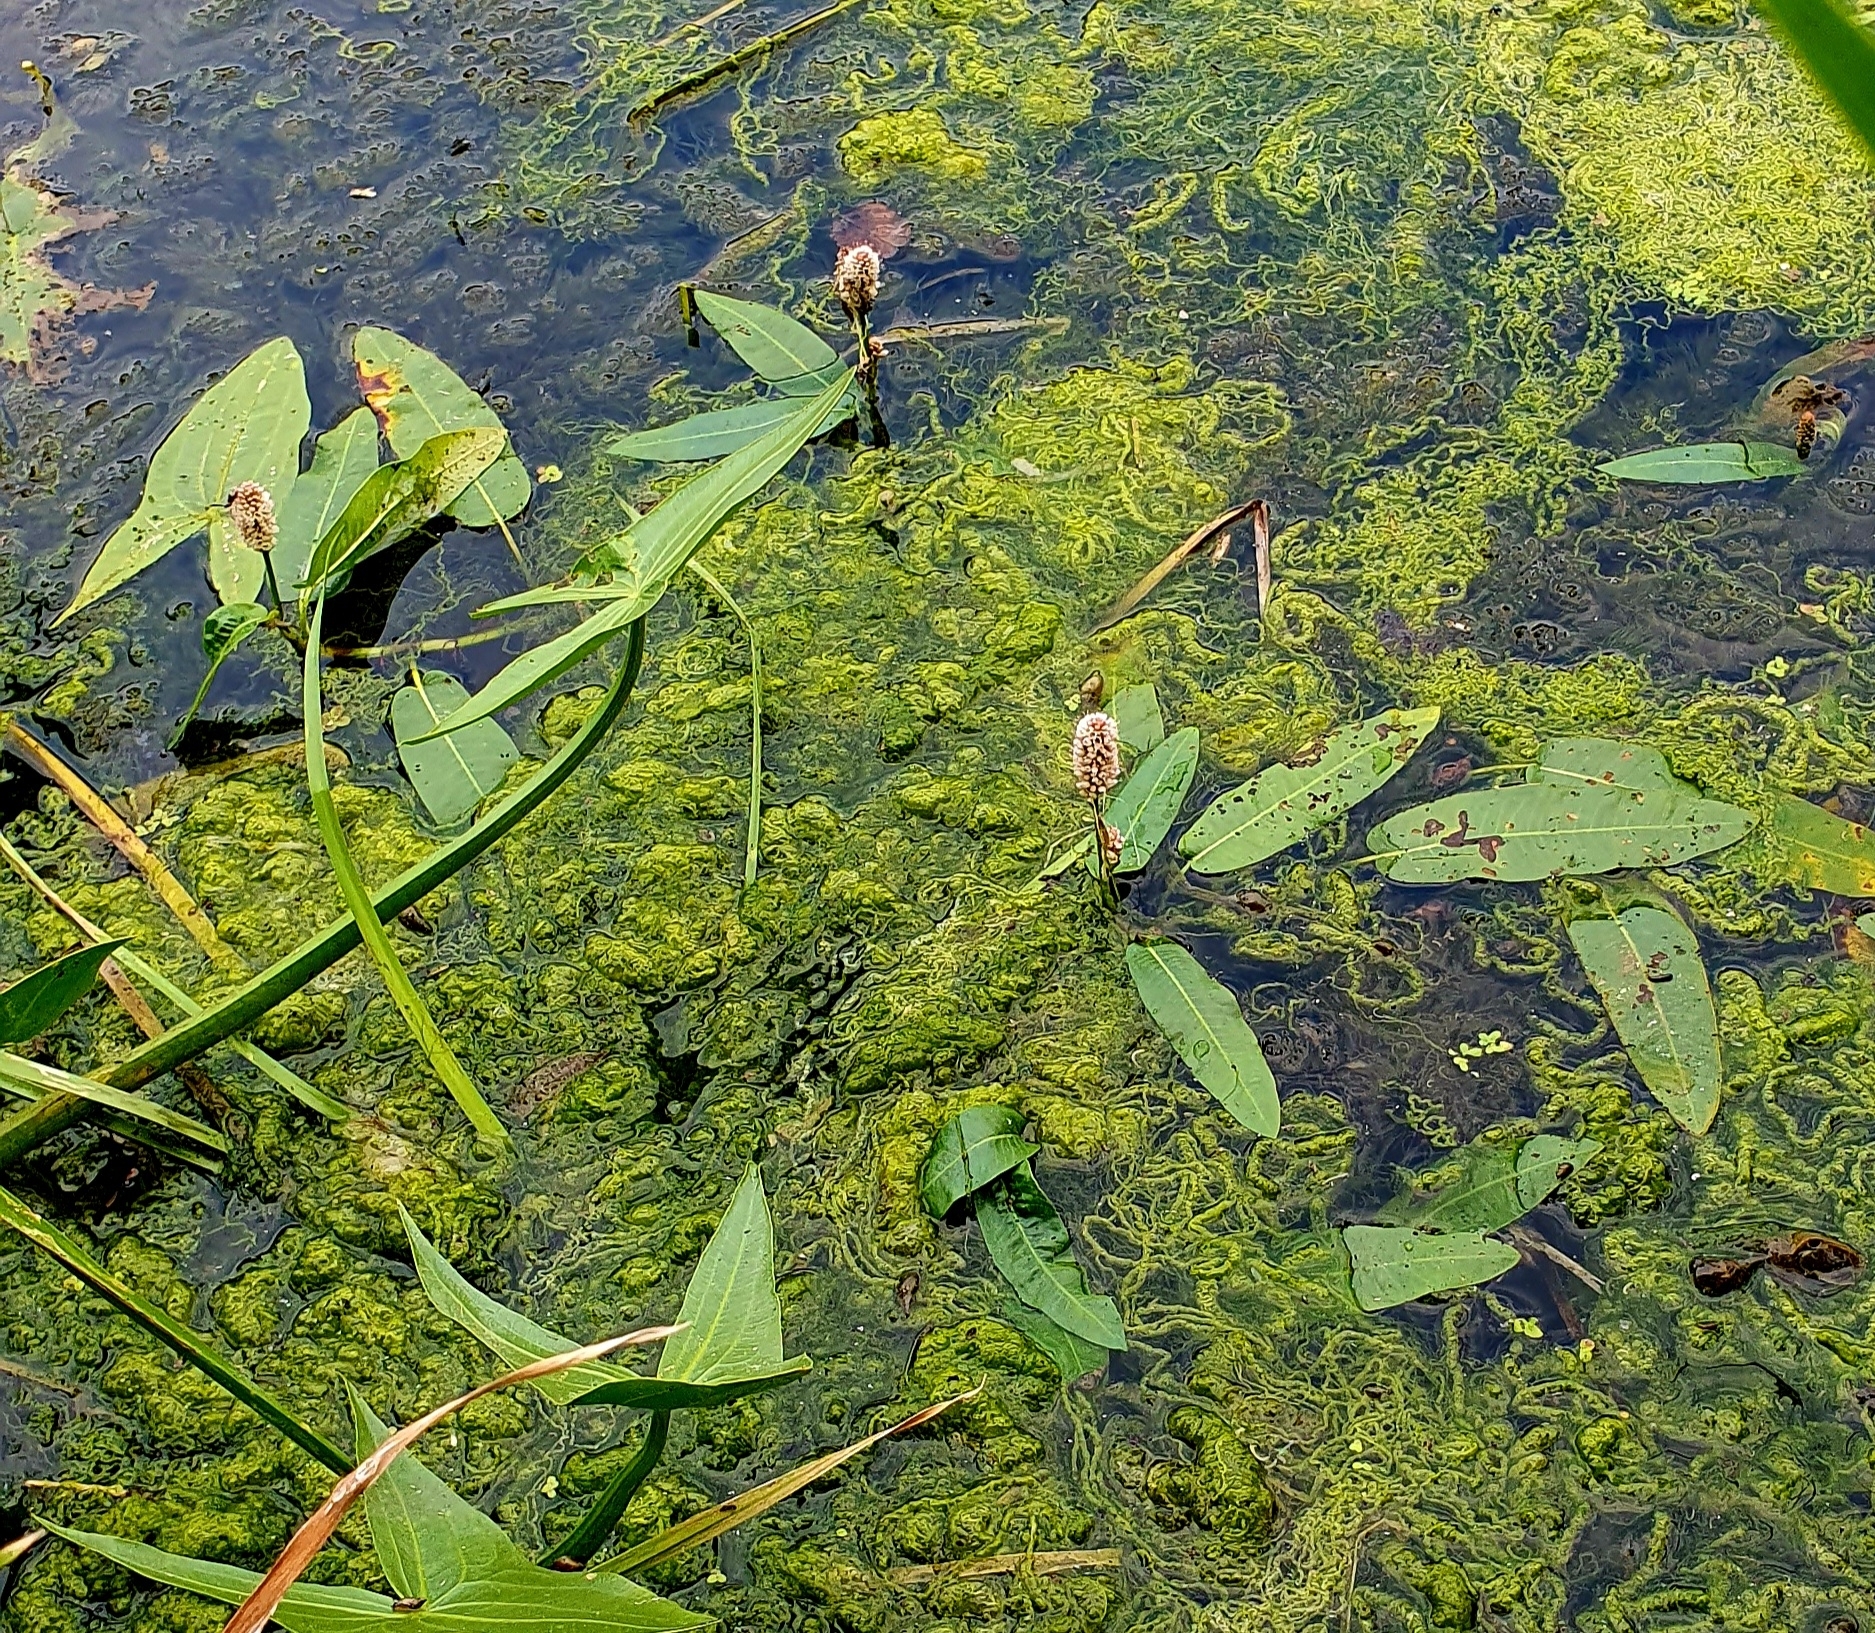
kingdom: Plantae
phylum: Tracheophyta
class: Magnoliopsida
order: Caryophyllales
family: Polygonaceae
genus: Persicaria
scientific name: Persicaria amphibia
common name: Amphibious bistort
